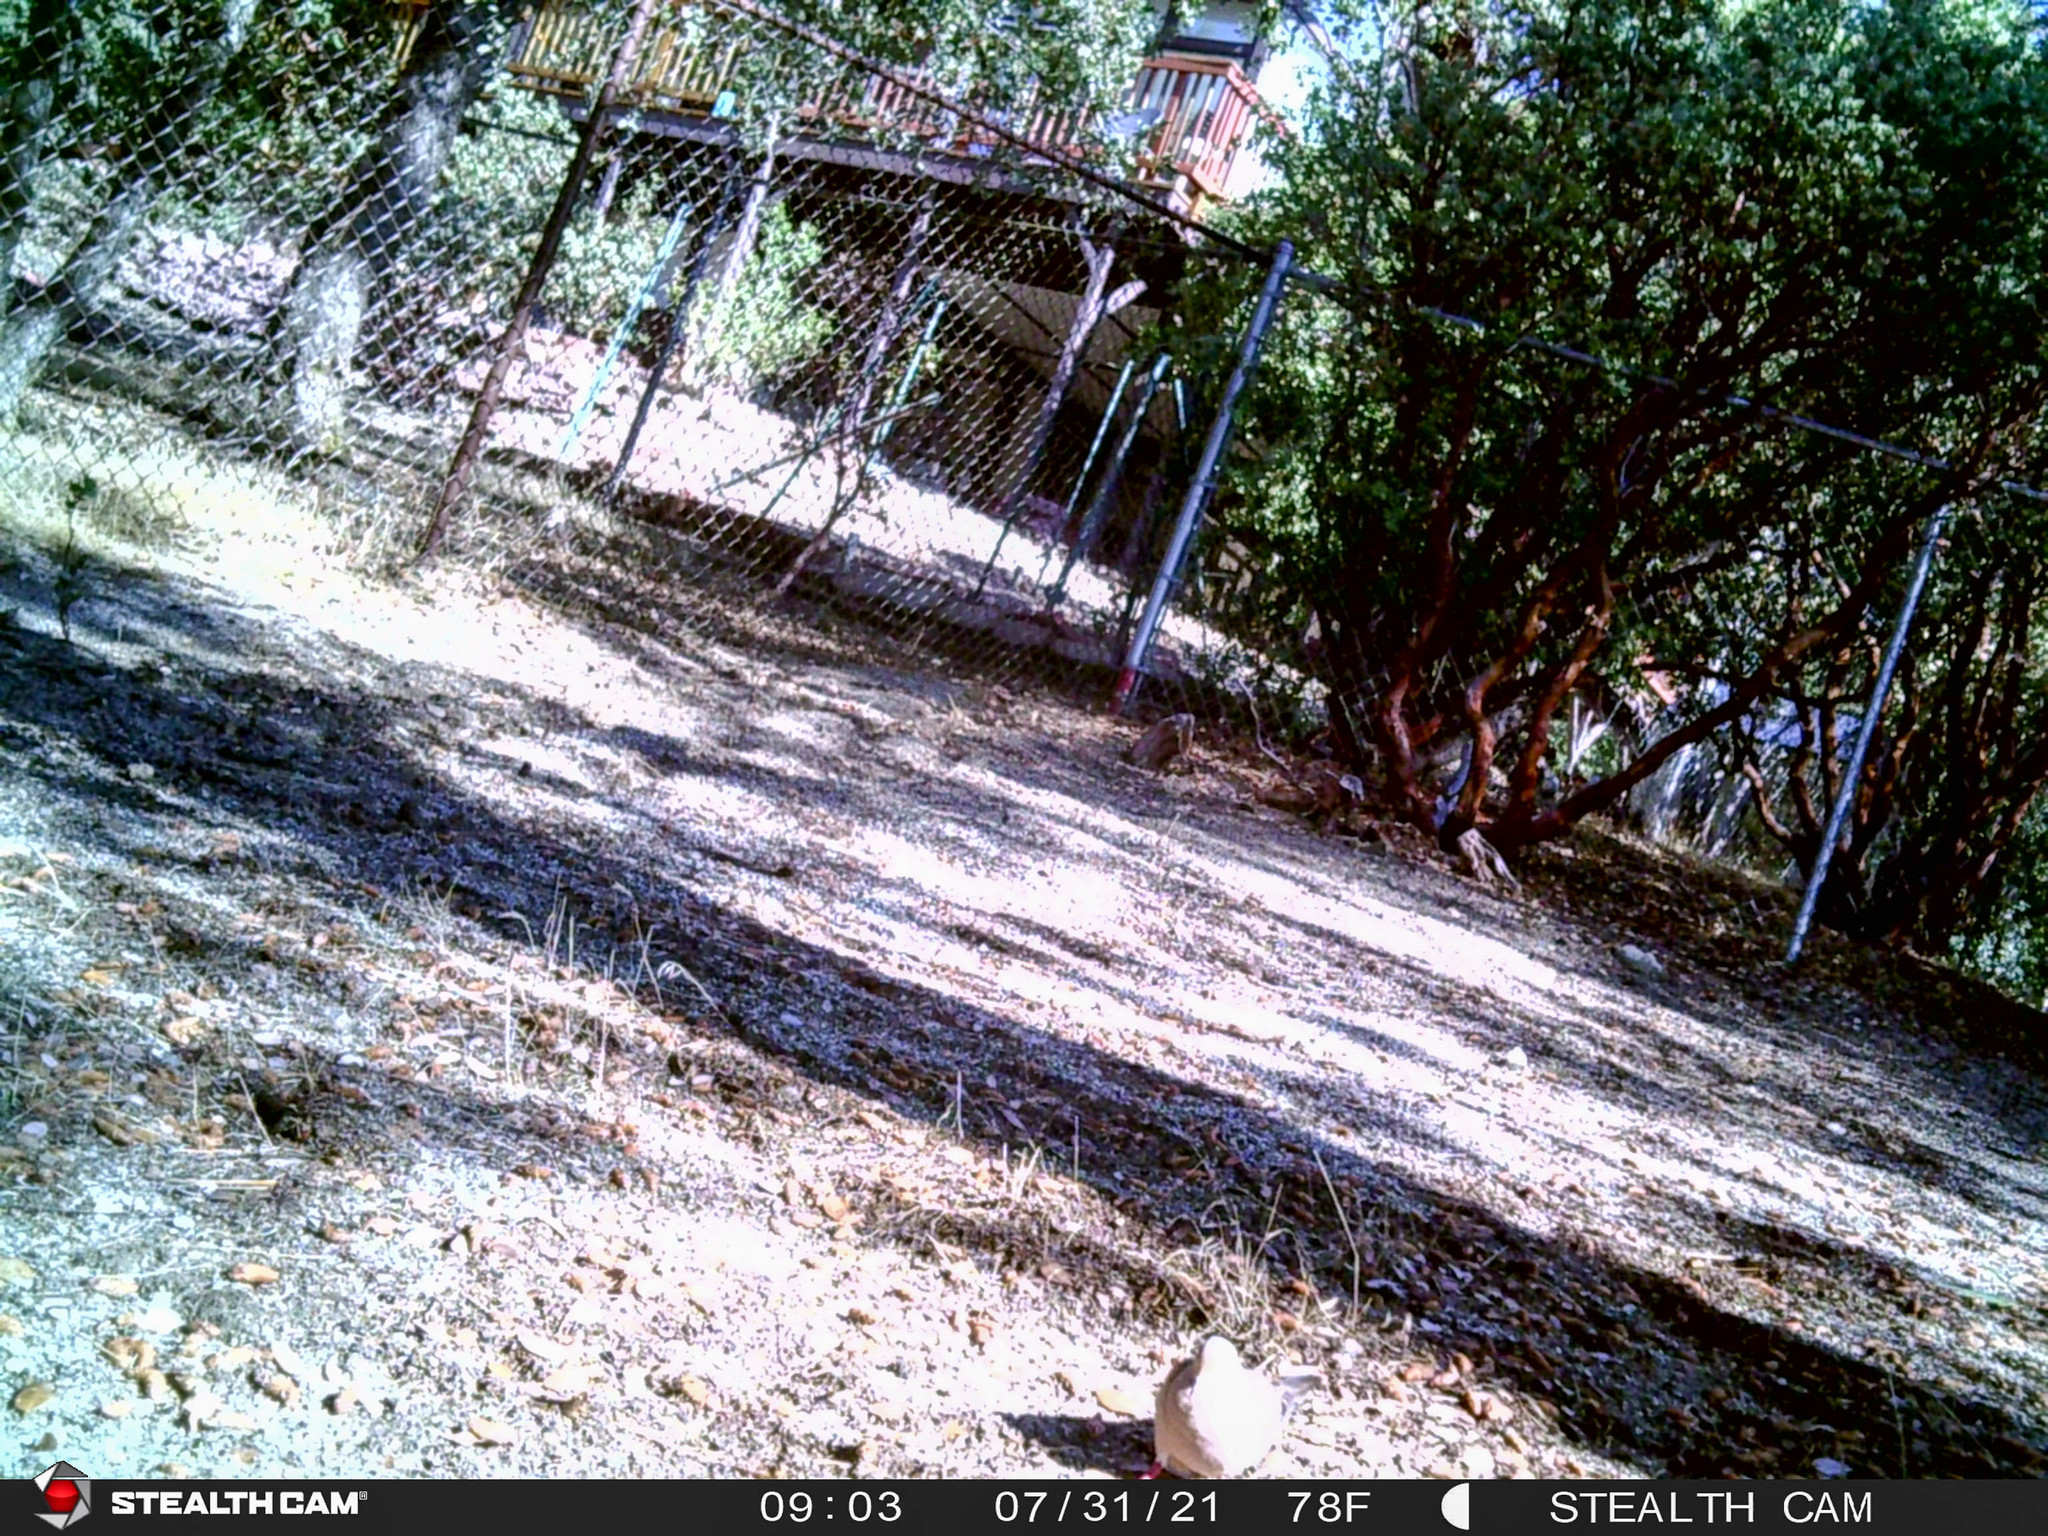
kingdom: Animalia
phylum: Chordata
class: Aves
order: Columbiformes
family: Columbidae
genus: Zenaida
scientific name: Zenaida macroura
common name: Mourning dove
